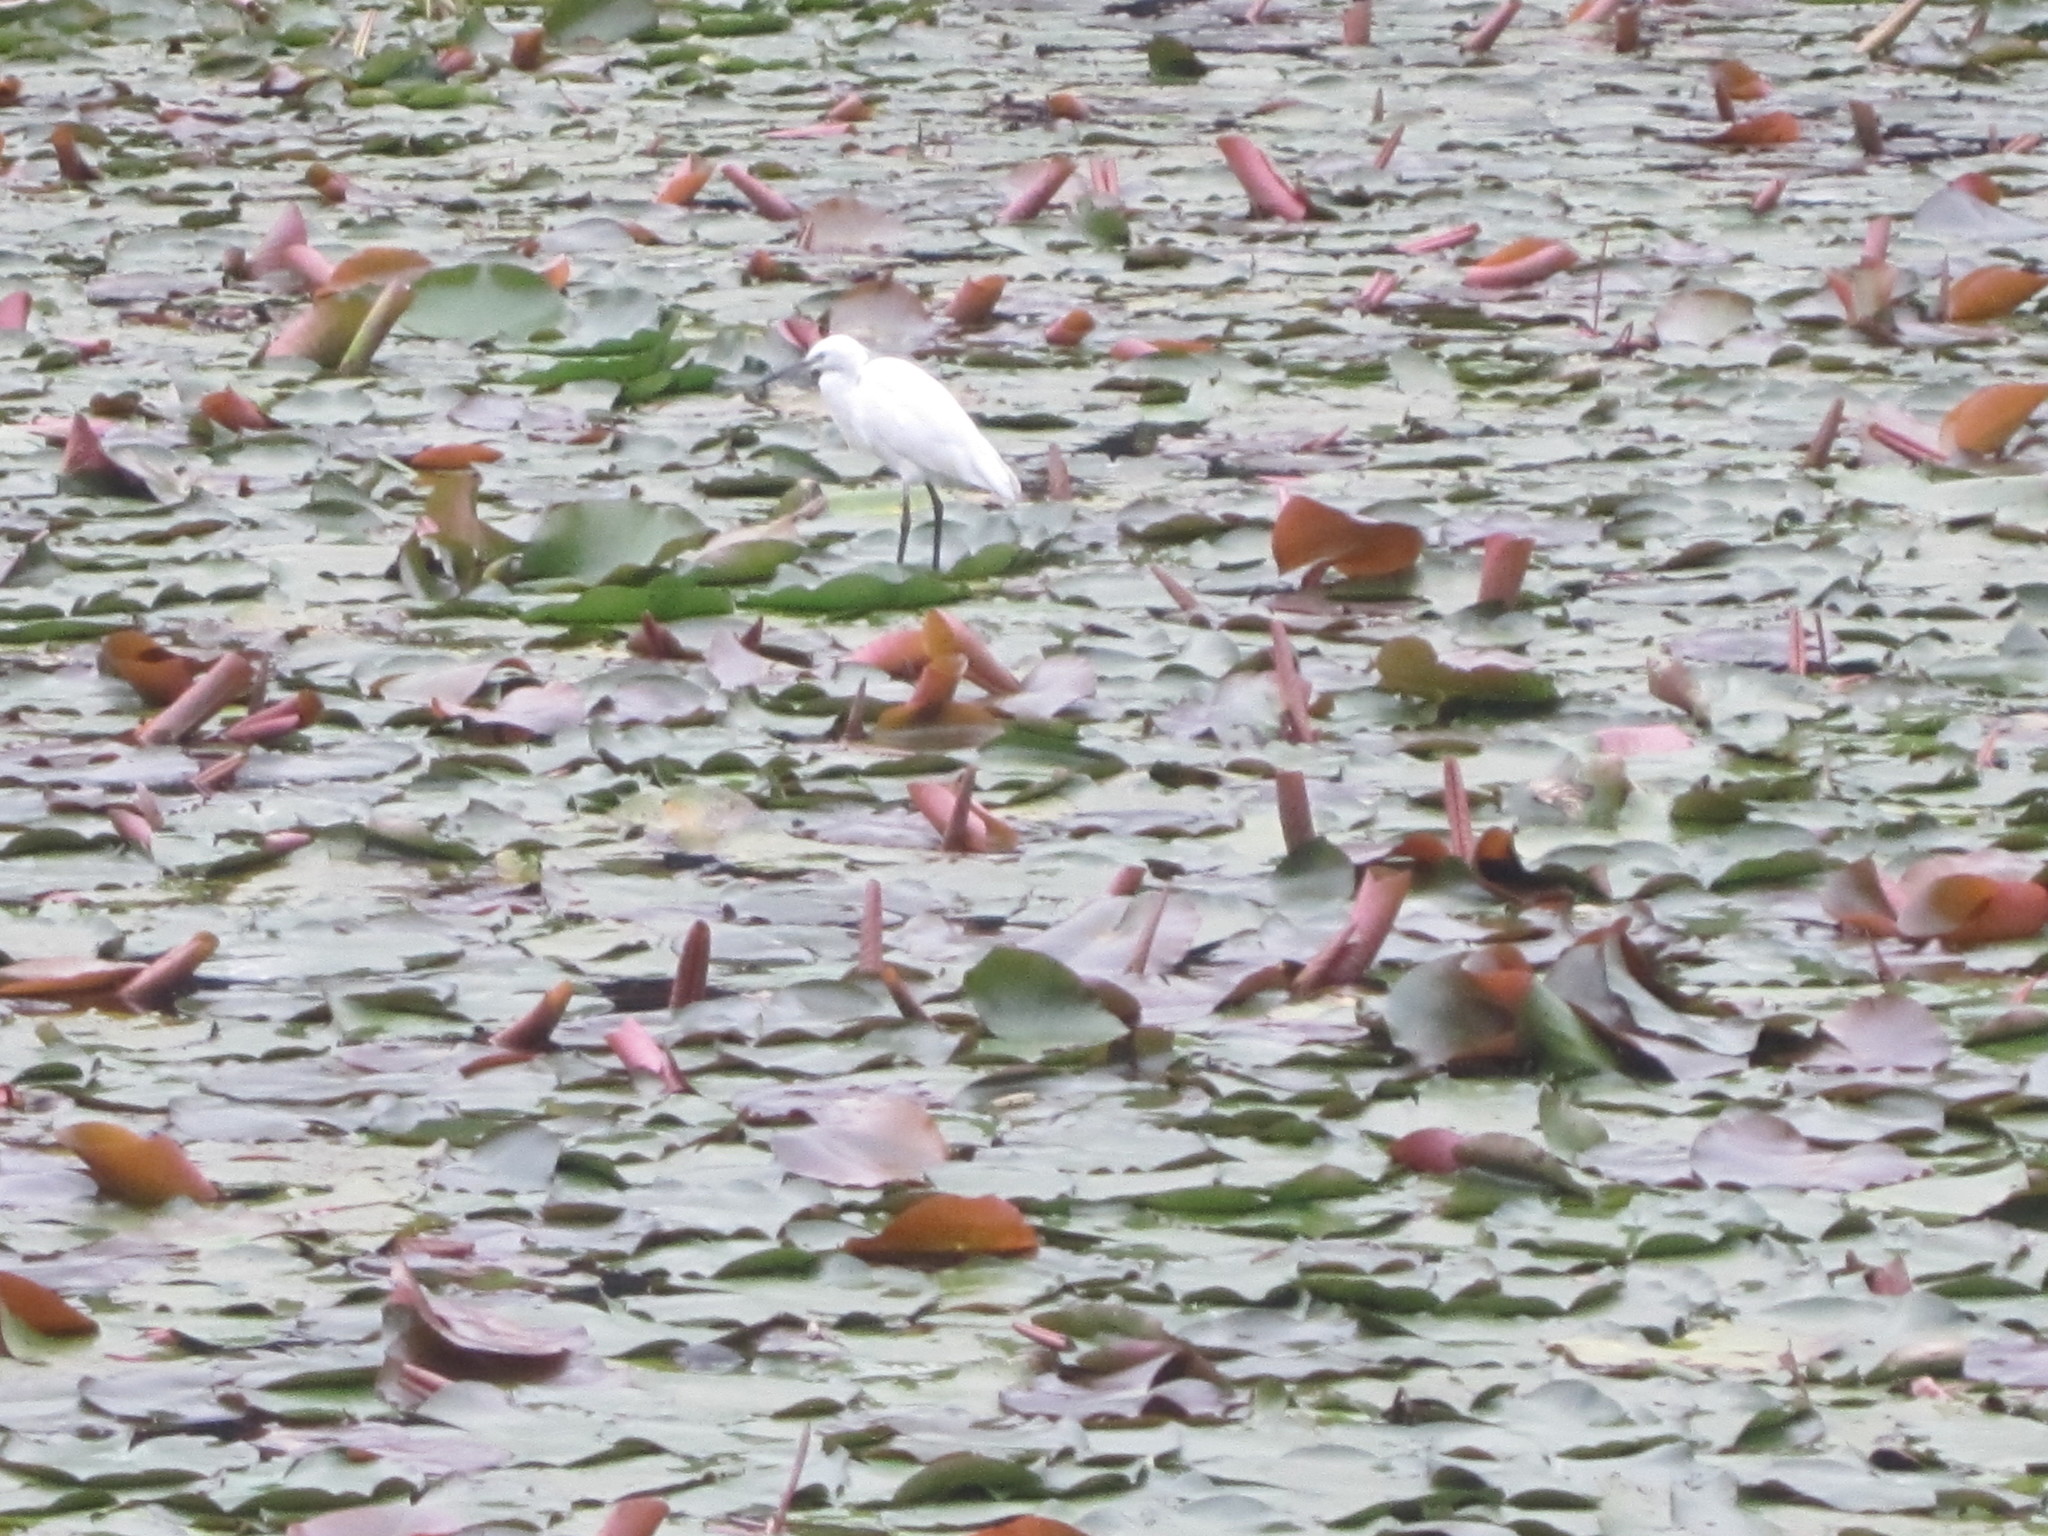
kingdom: Animalia
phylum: Chordata
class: Aves
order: Pelecaniformes
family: Ardeidae
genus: Egretta
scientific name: Egretta garzetta
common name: Little egret
